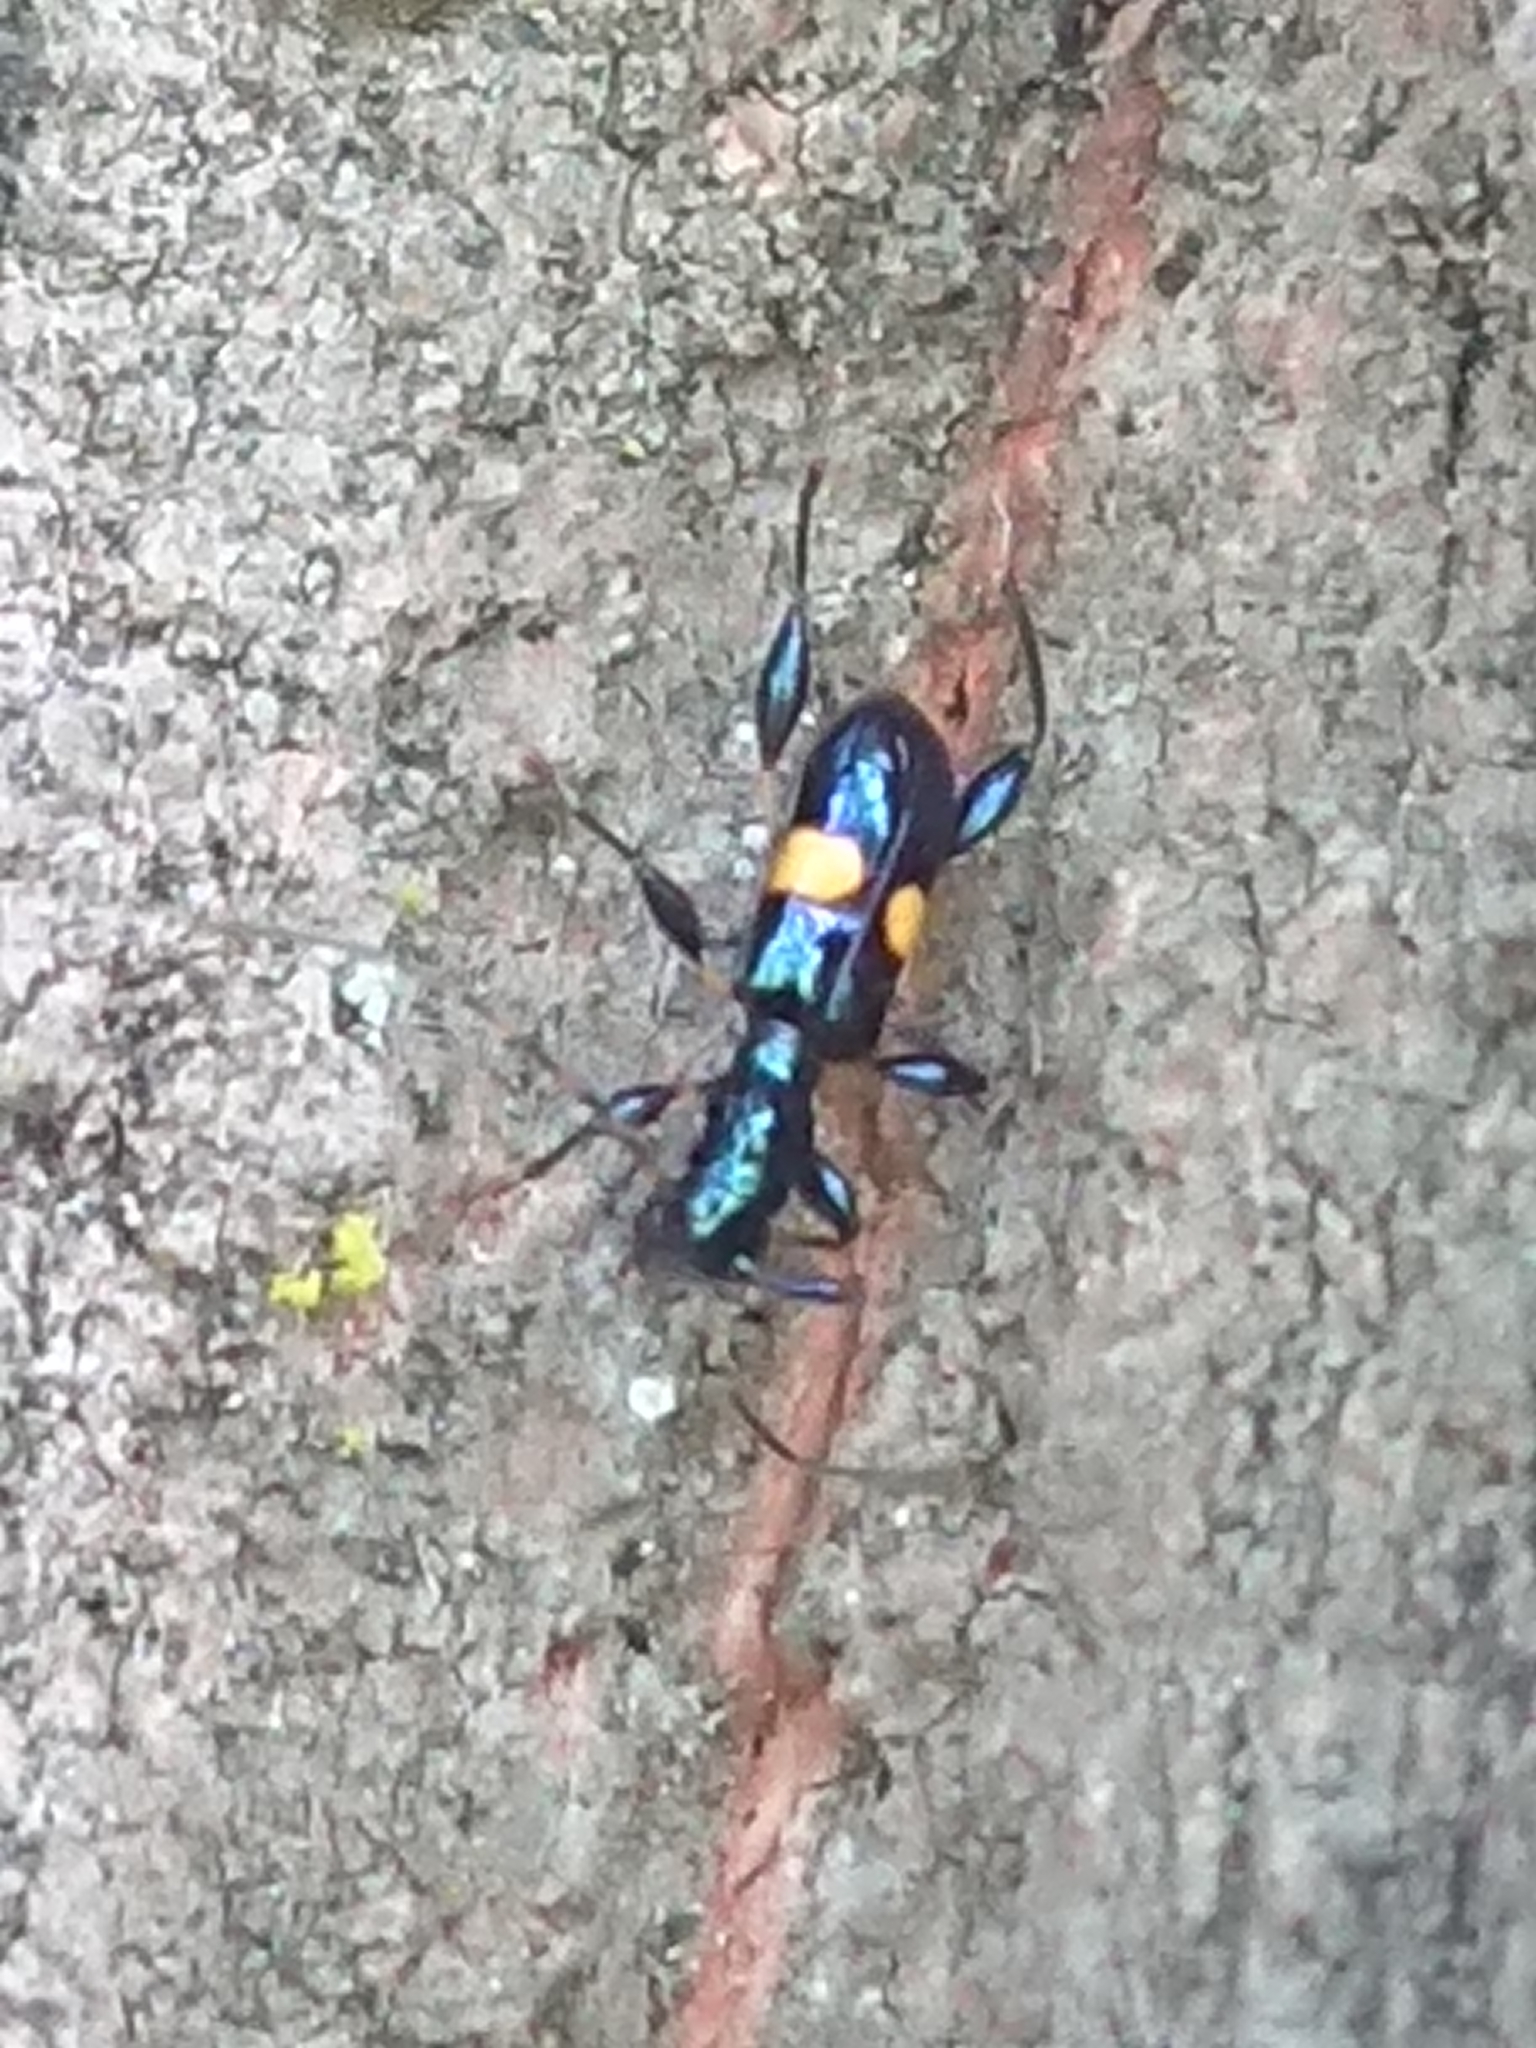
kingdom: Animalia
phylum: Arthropoda
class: Insecta
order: Coleoptera
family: Cerambycidae
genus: Zorion
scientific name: Zorion guttigerum
